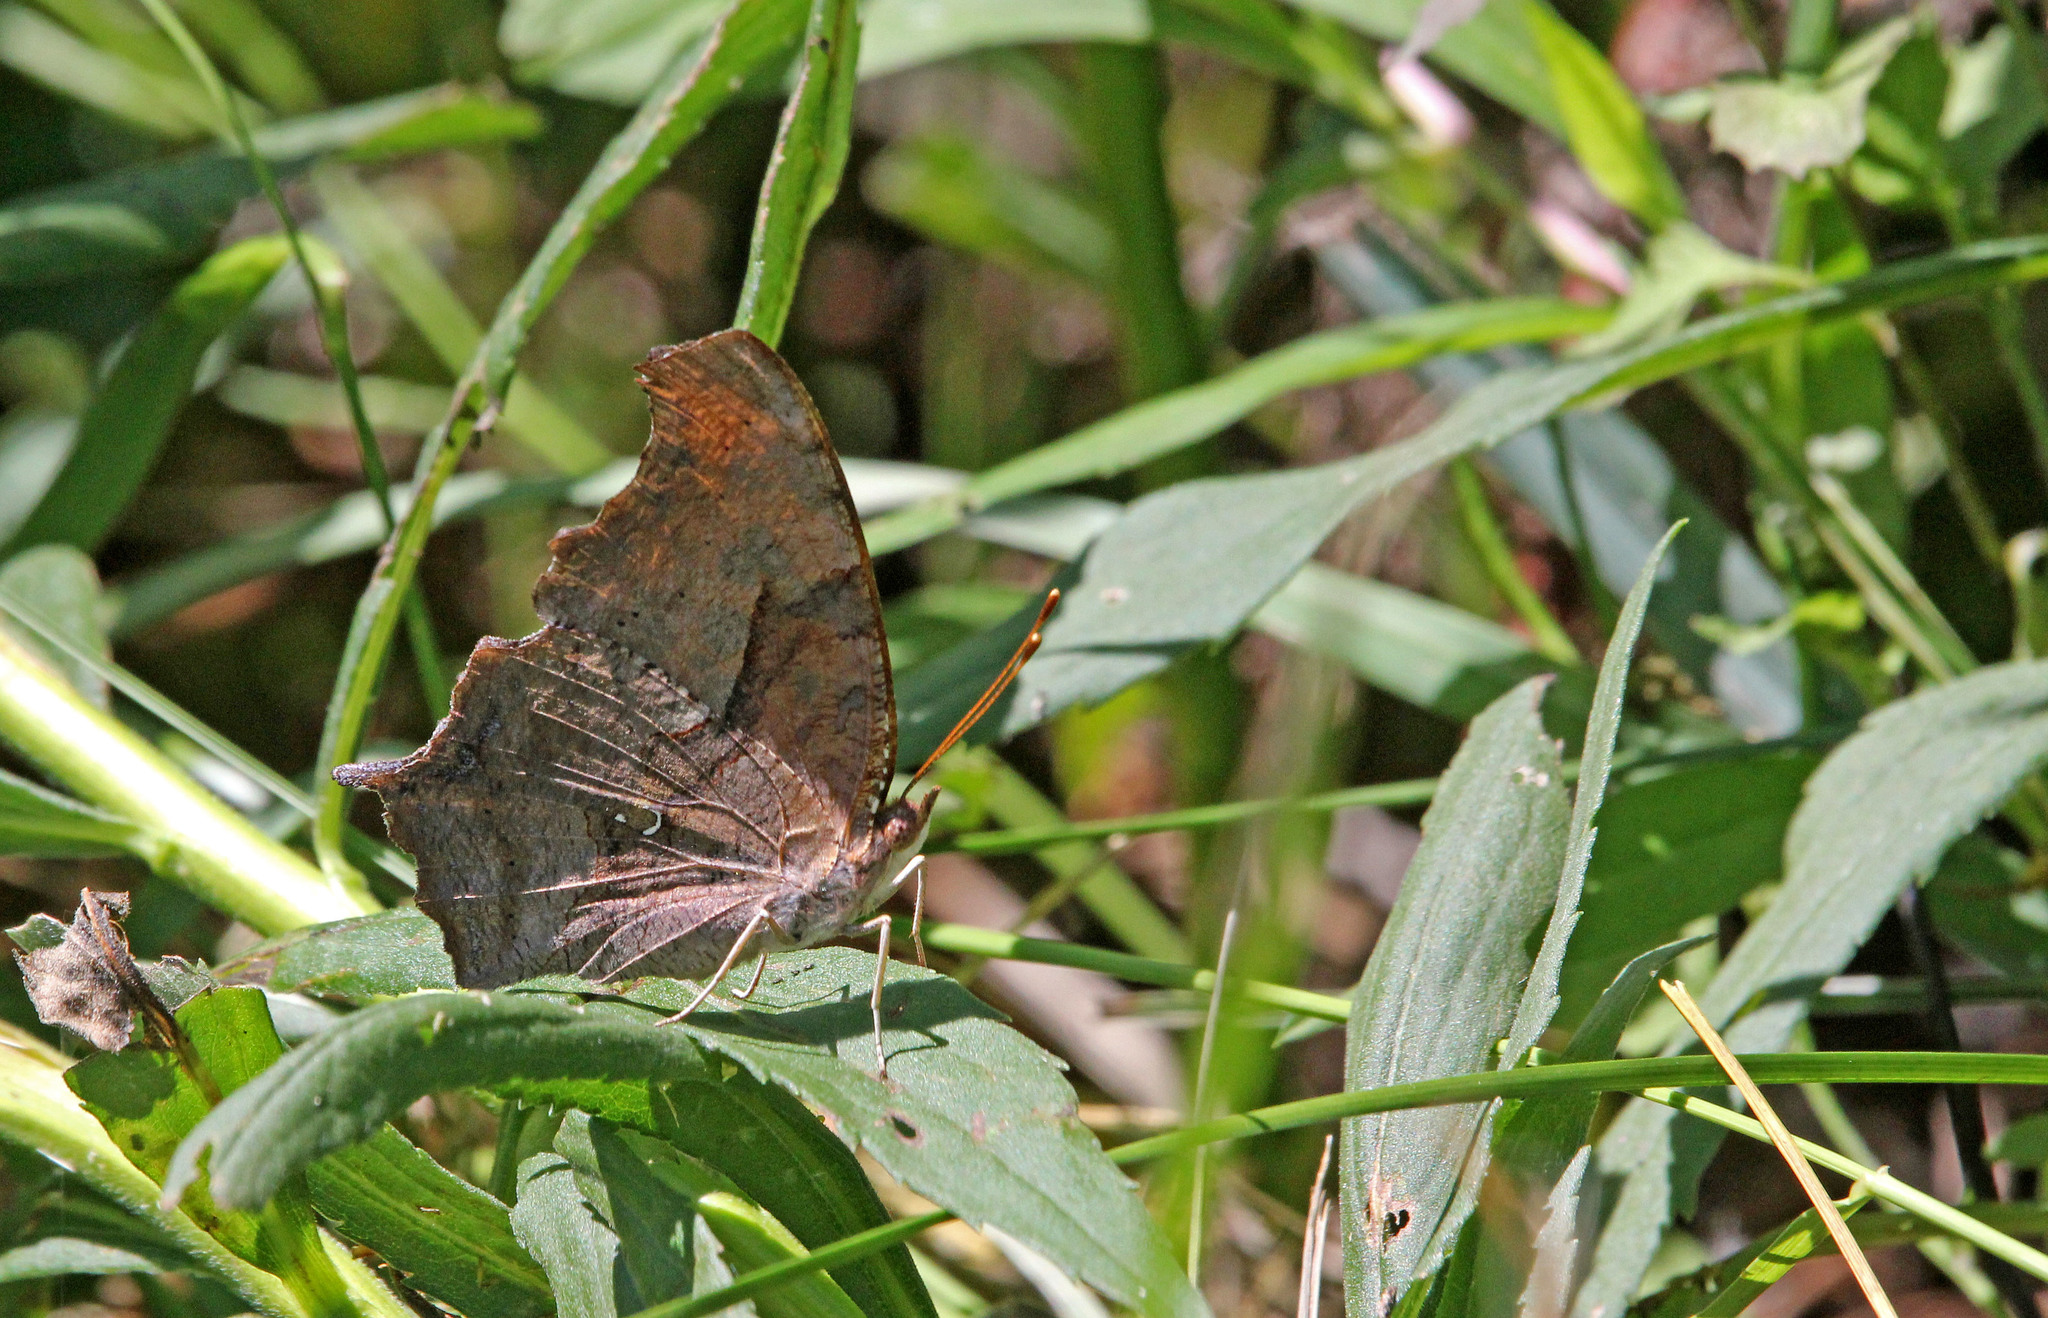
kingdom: Animalia
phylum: Arthropoda
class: Insecta
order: Lepidoptera
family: Nymphalidae
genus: Polygonia
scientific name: Polygonia interrogationis
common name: Question mark
